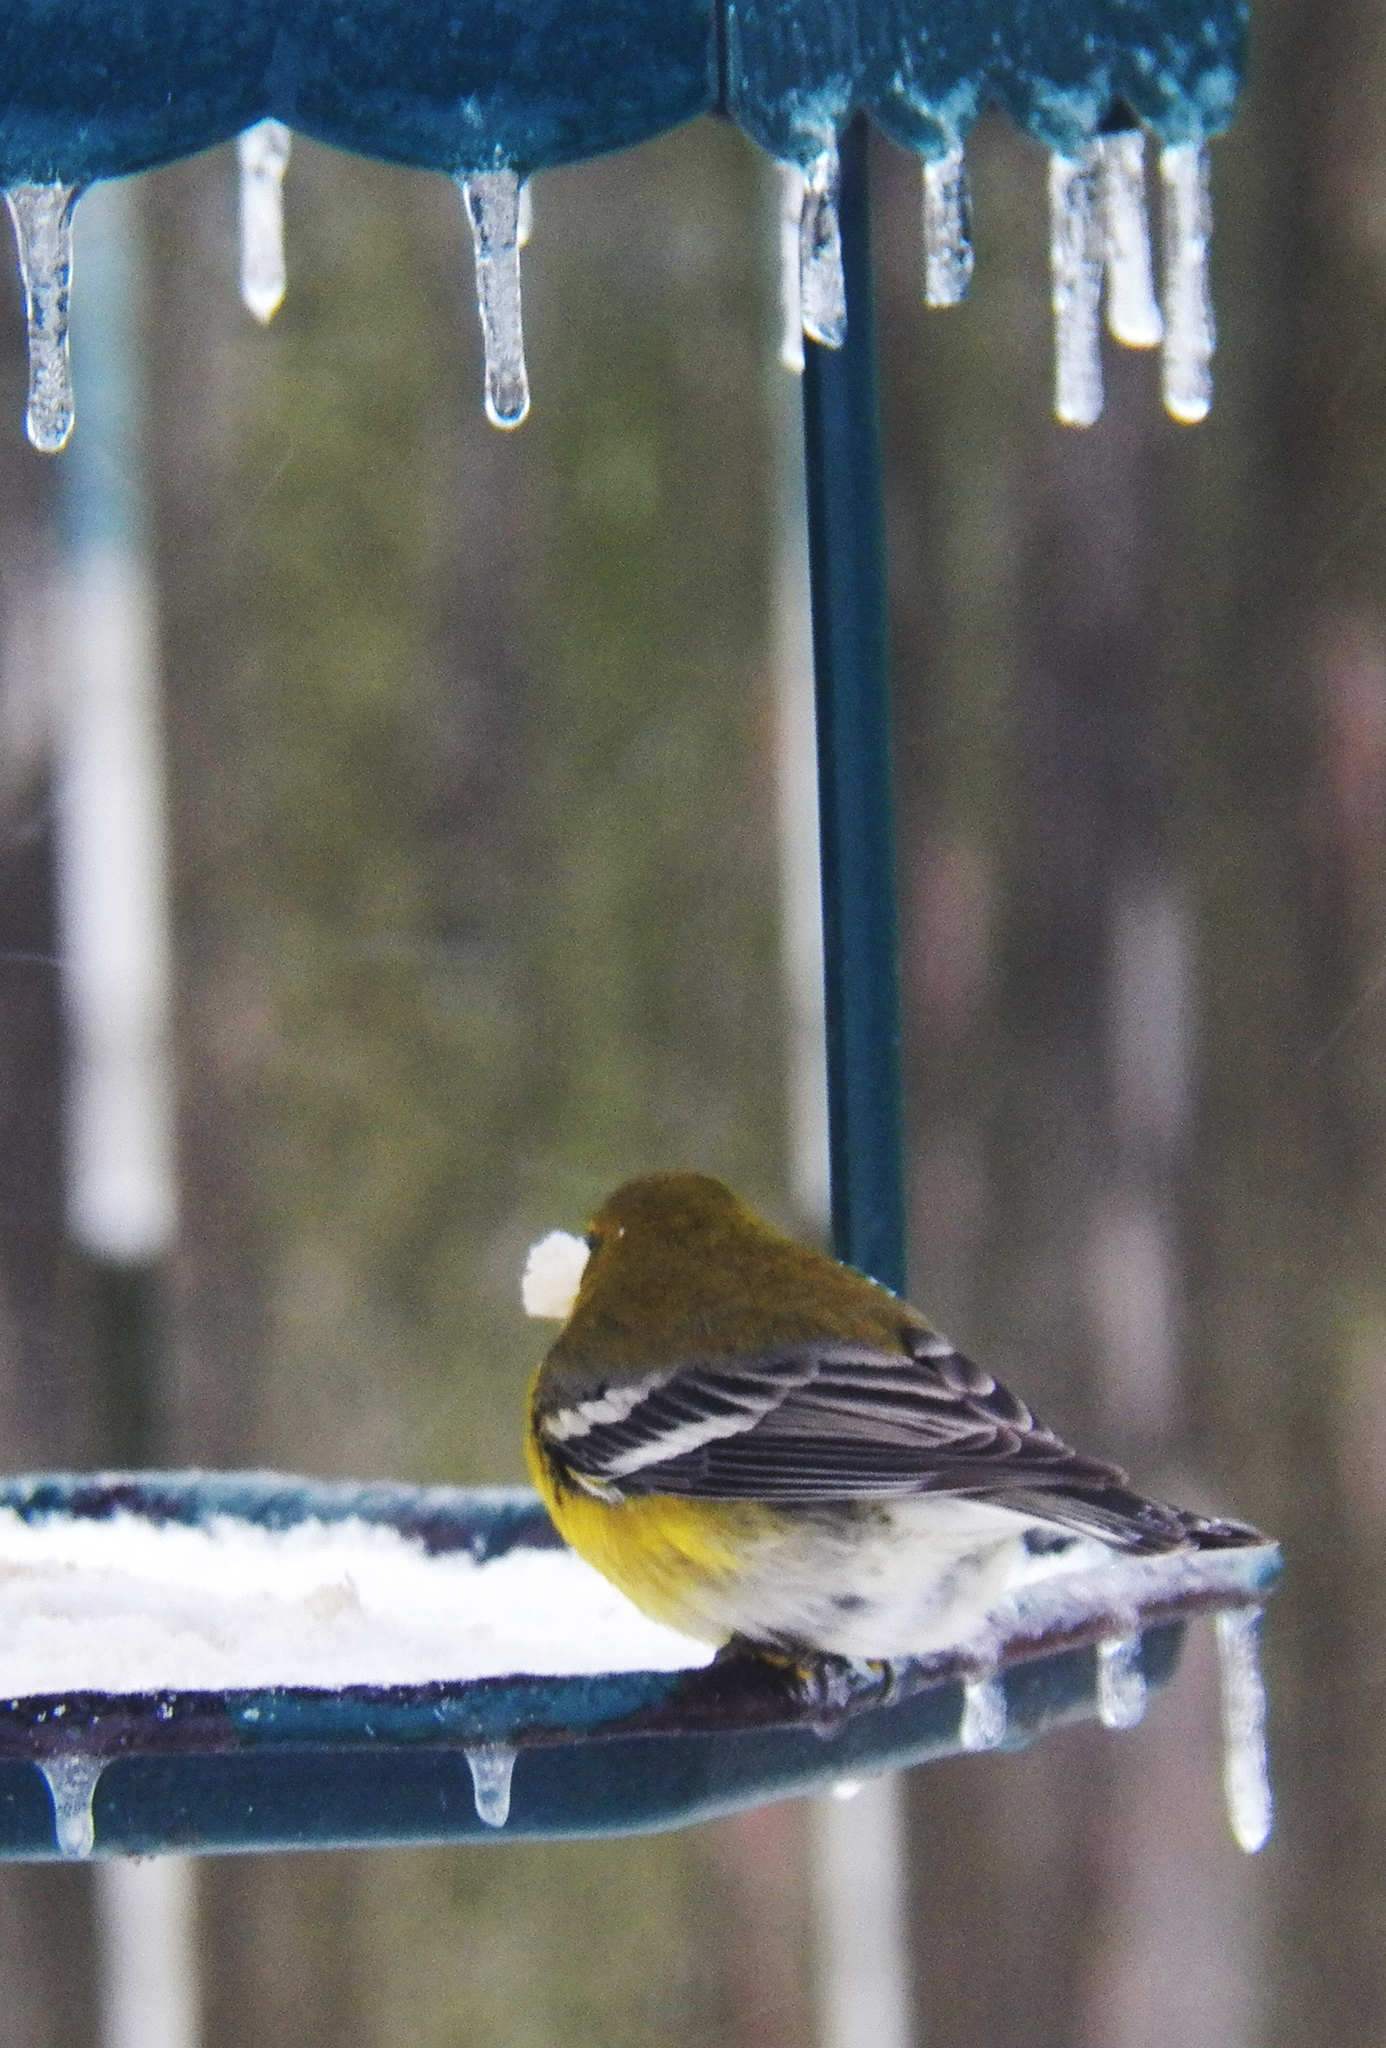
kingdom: Animalia
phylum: Chordata
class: Aves
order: Passeriformes
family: Parulidae
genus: Setophaga
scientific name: Setophaga pinus
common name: Pine warbler
